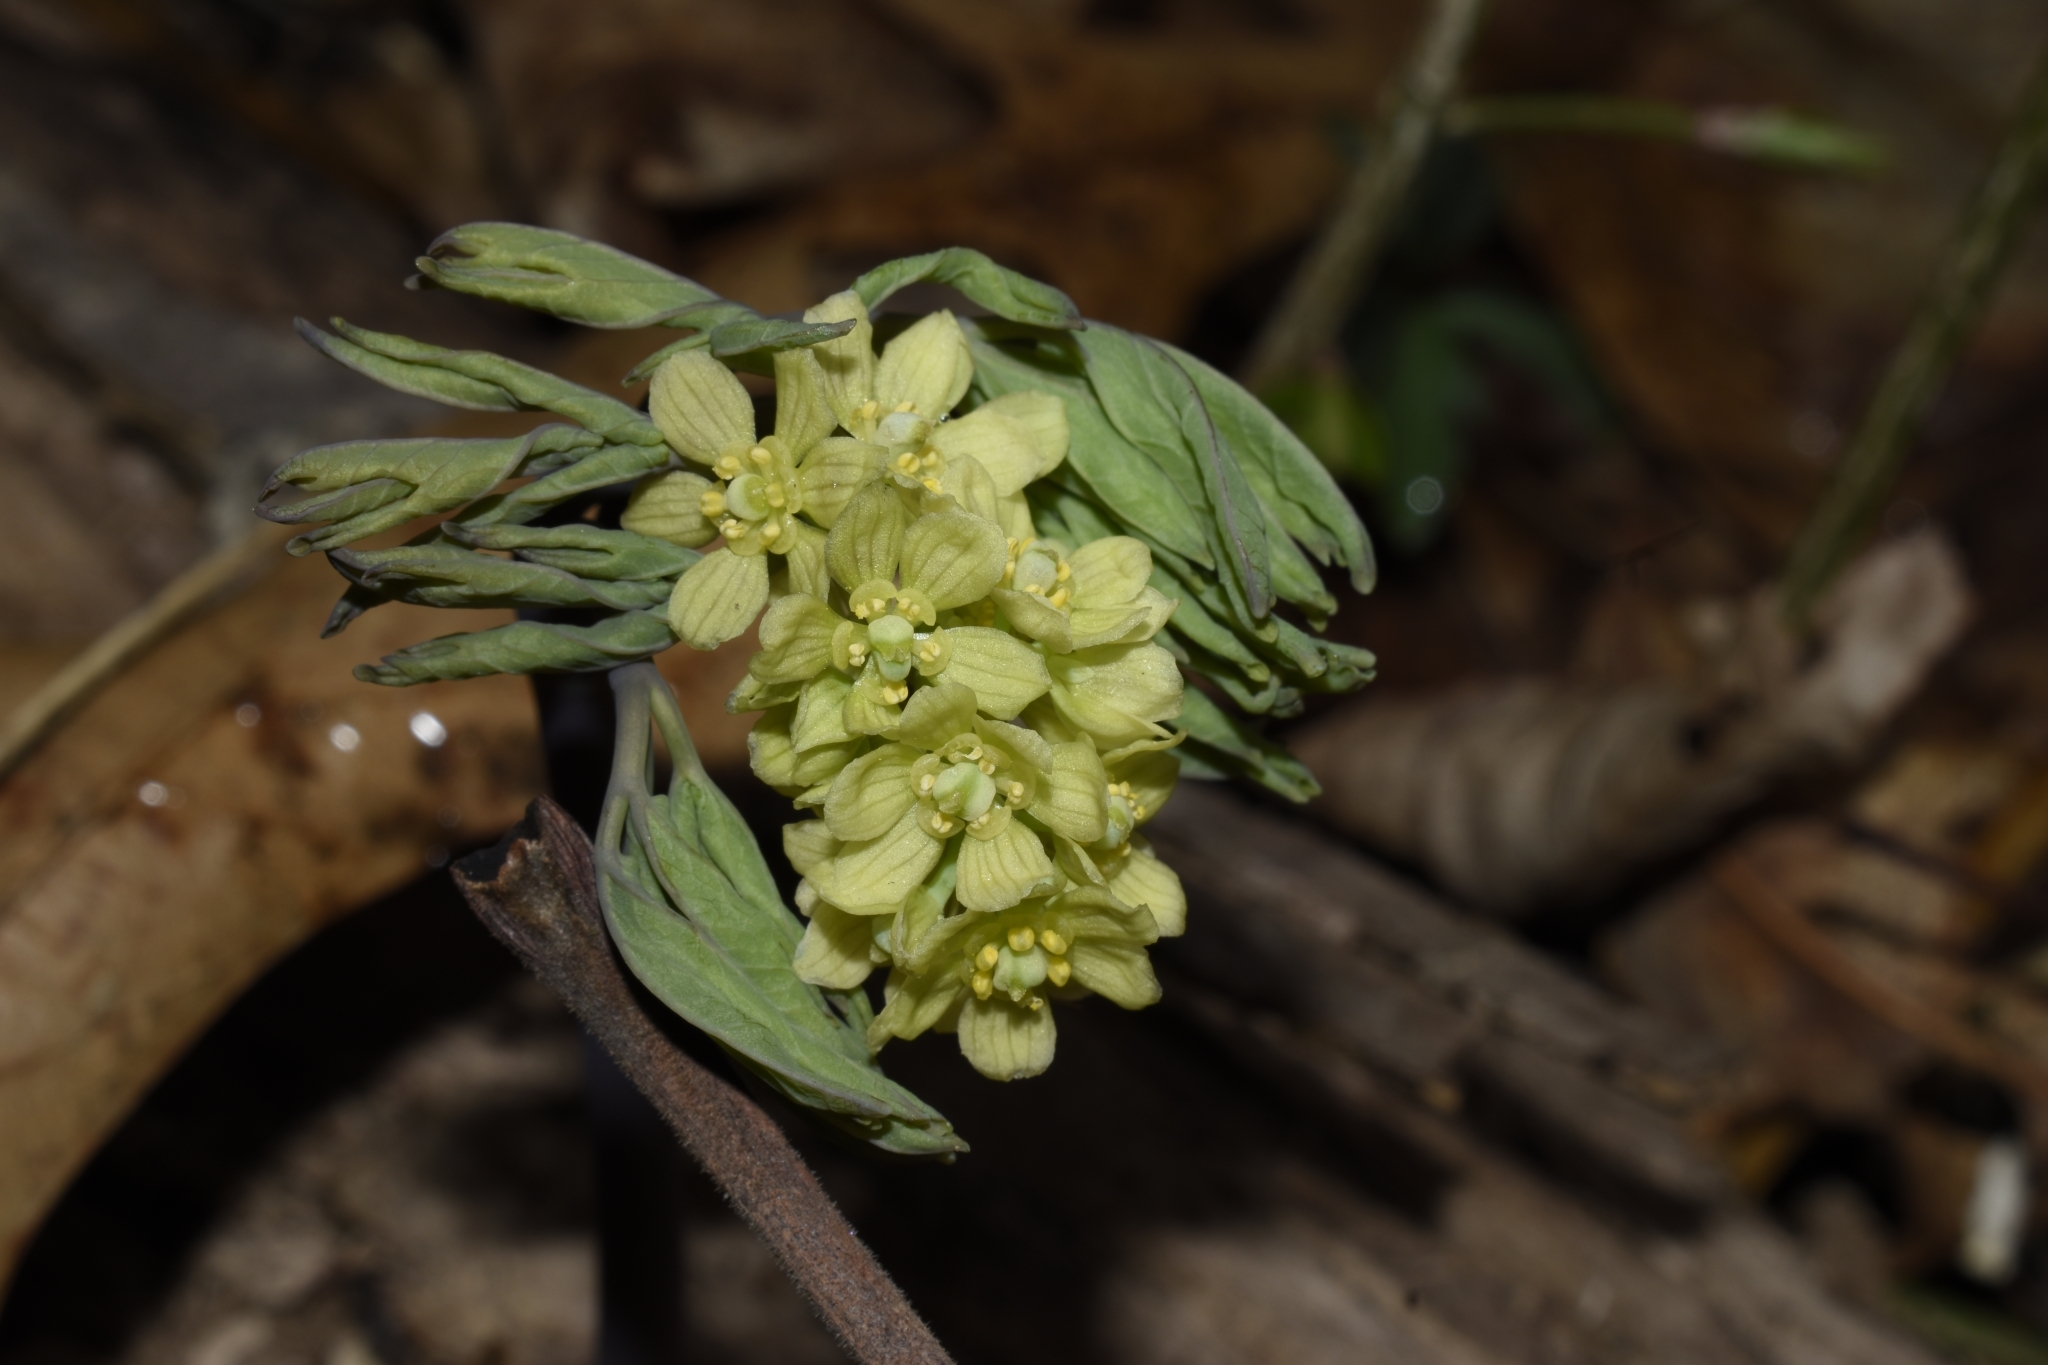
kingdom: Plantae
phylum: Tracheophyta
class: Magnoliopsida
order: Ranunculales
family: Berberidaceae
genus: Caulophyllum
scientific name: Caulophyllum thalictroides
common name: Blue cohosh
